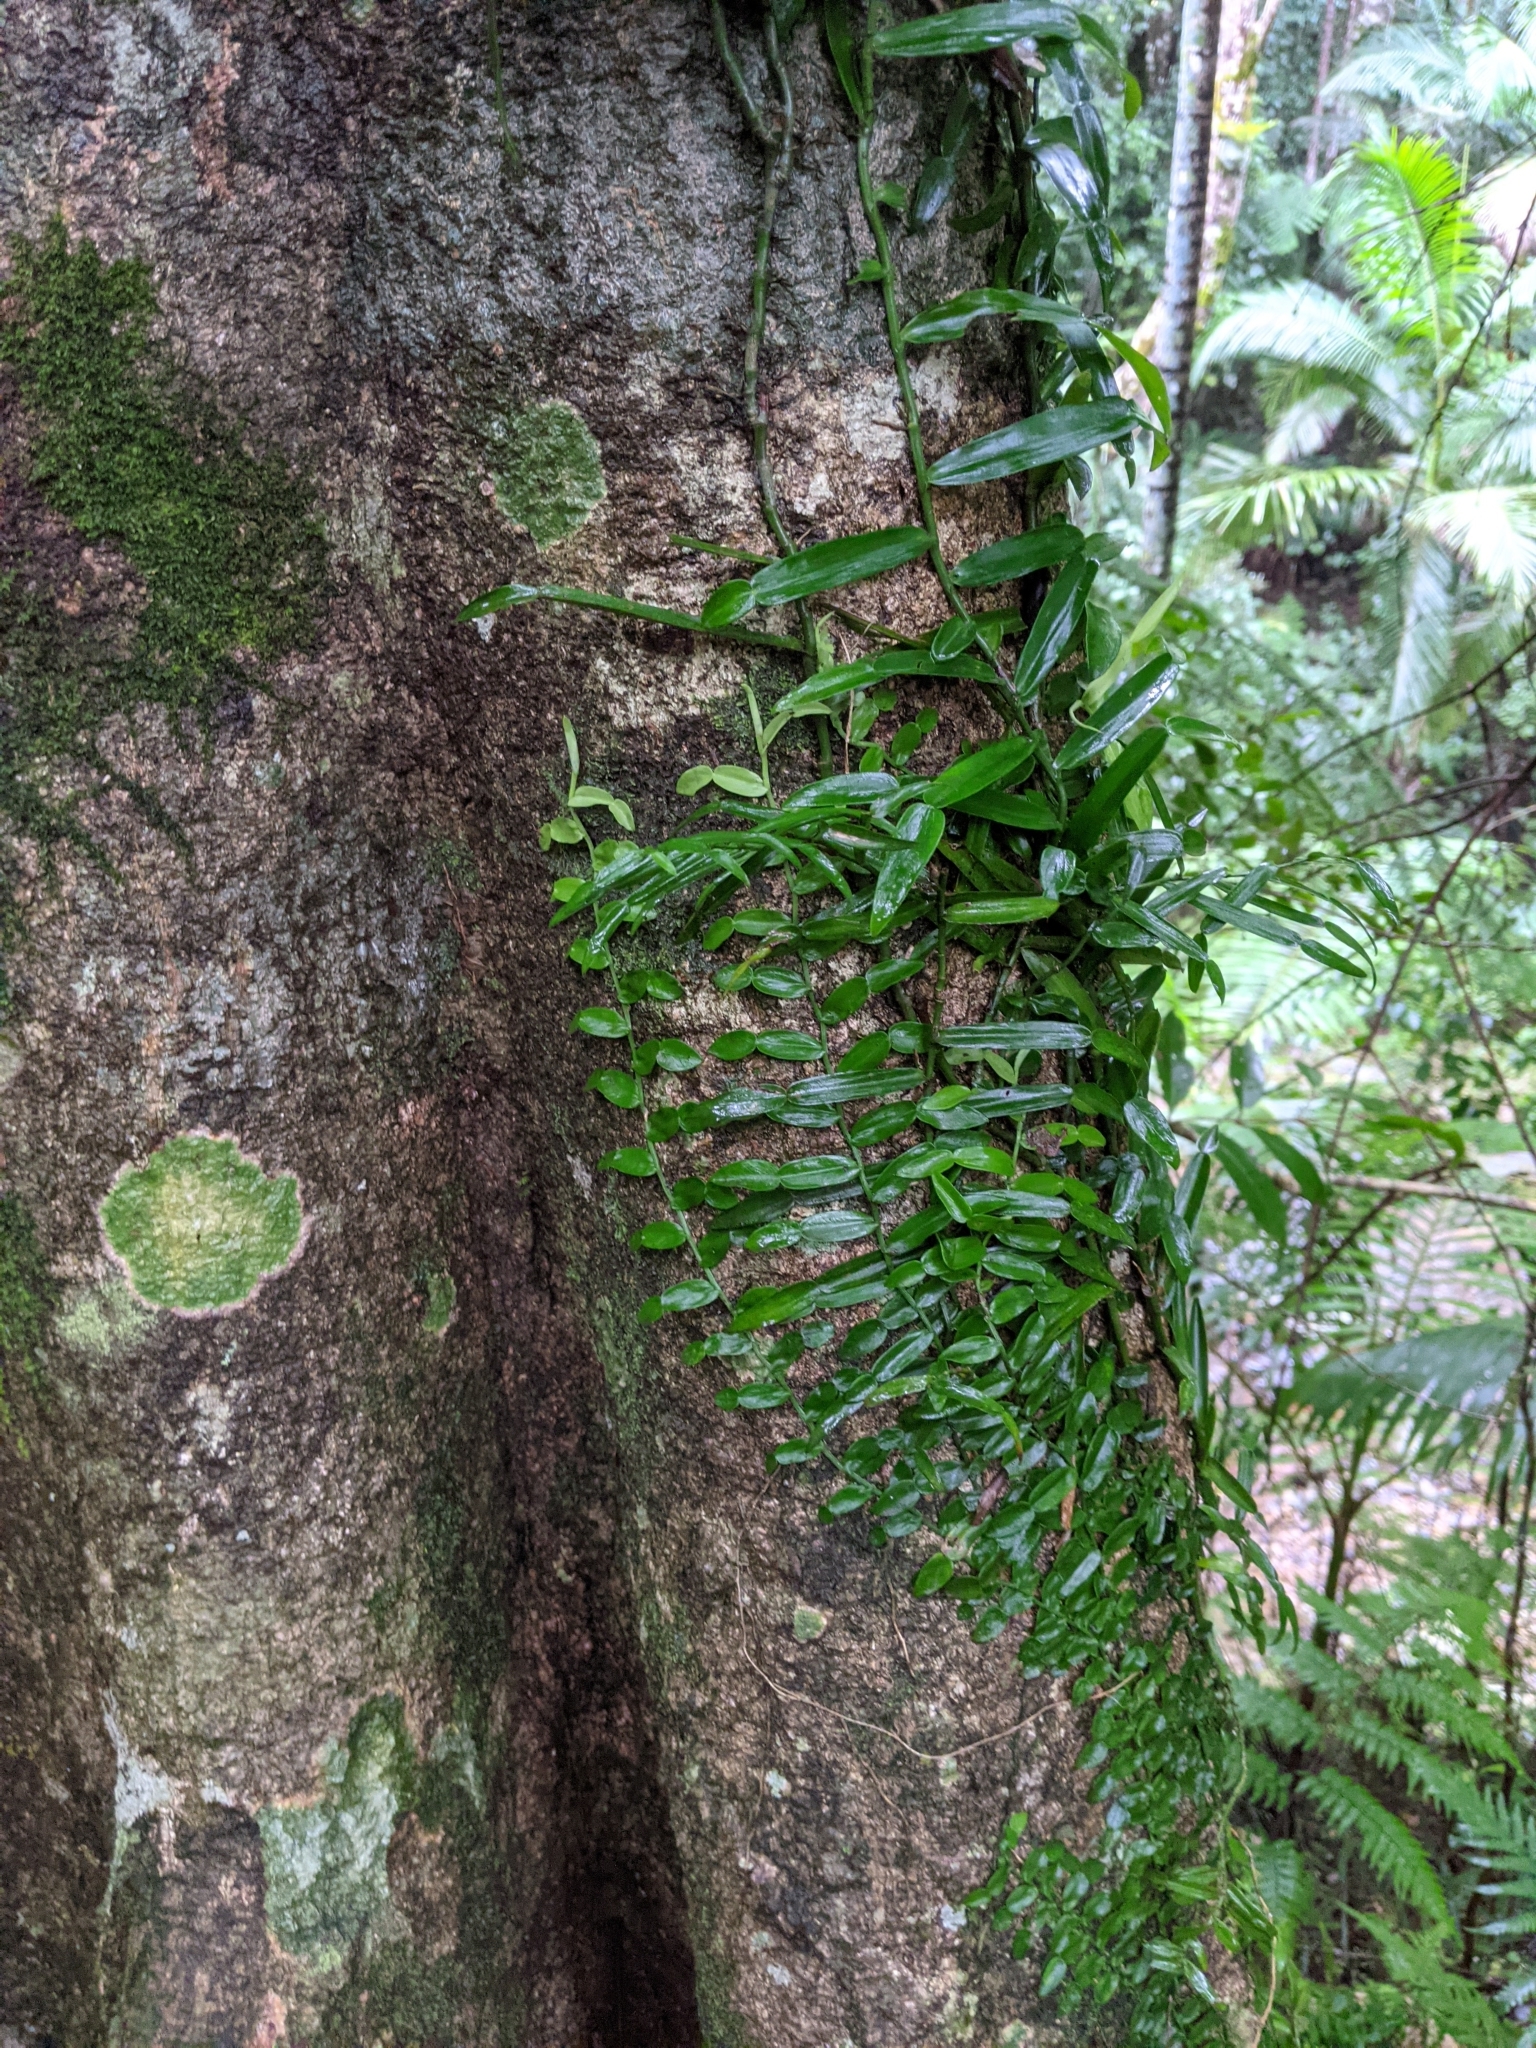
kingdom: Plantae
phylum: Tracheophyta
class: Liliopsida
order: Alismatales
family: Araceae
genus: Pothos
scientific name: Pothos longipes
